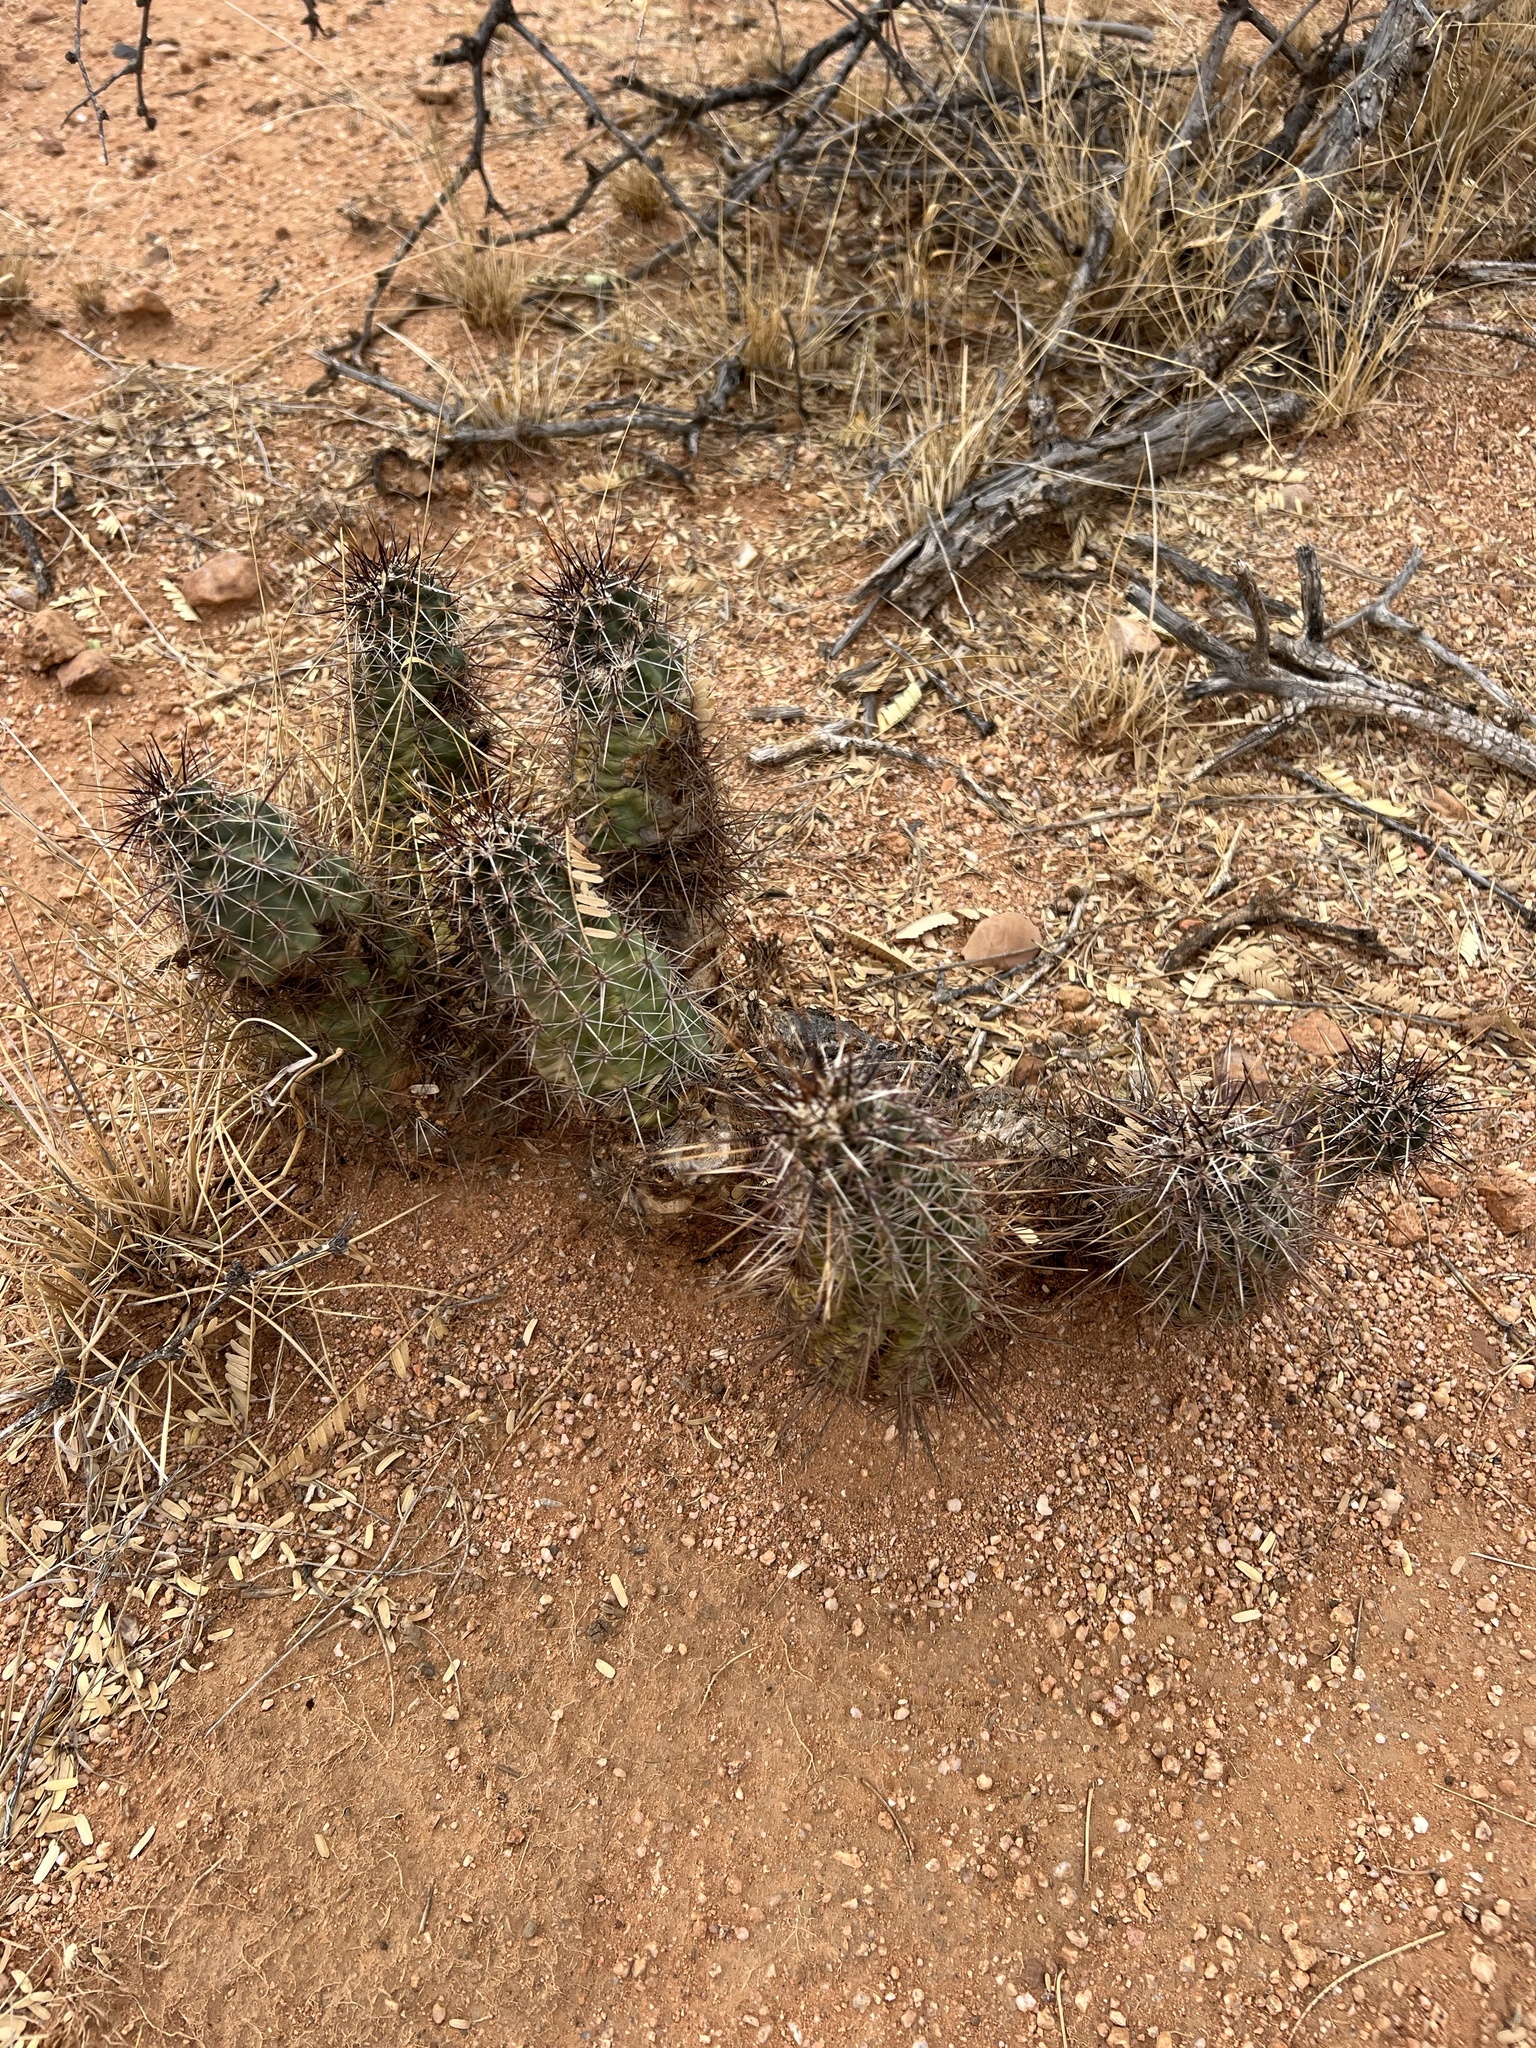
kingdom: Plantae
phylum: Tracheophyta
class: Magnoliopsida
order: Caryophyllales
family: Cactaceae
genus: Echinocereus
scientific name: Echinocereus fasciculatus
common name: Bundle hedgehog
